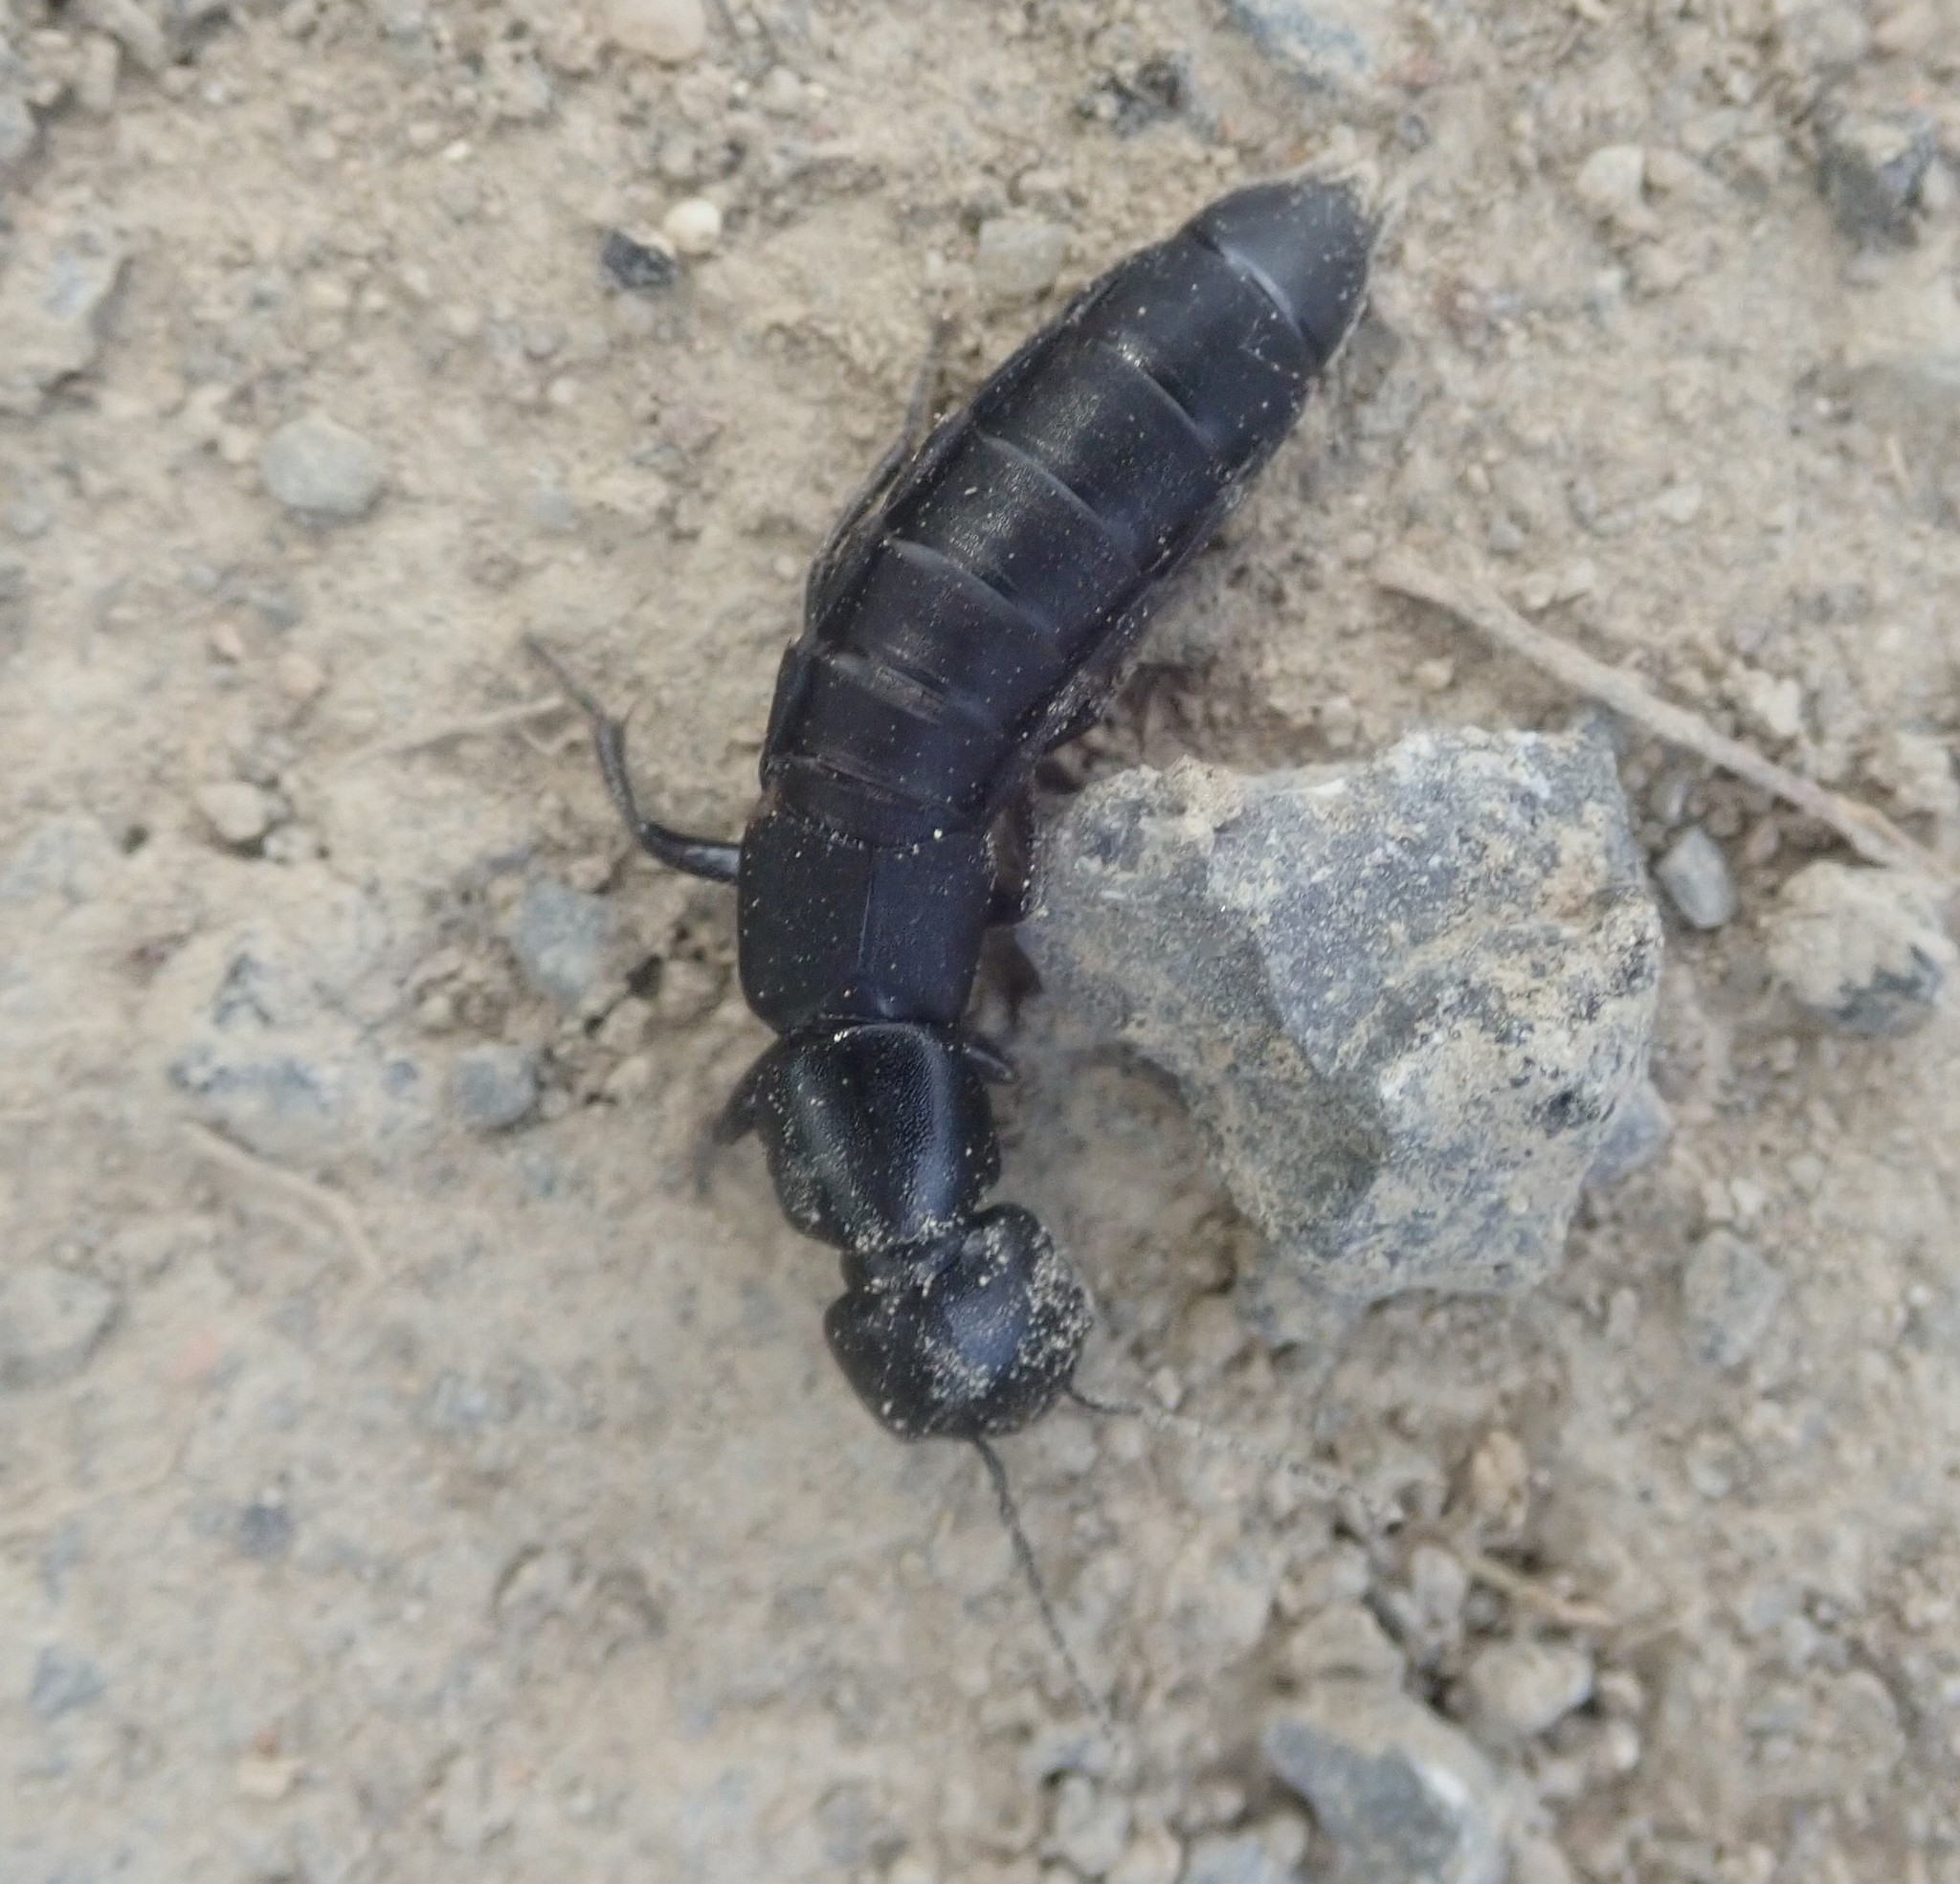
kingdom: Animalia
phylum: Arthropoda
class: Insecta
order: Coleoptera
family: Staphylinidae
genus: Ocypus
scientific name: Ocypus nitens
